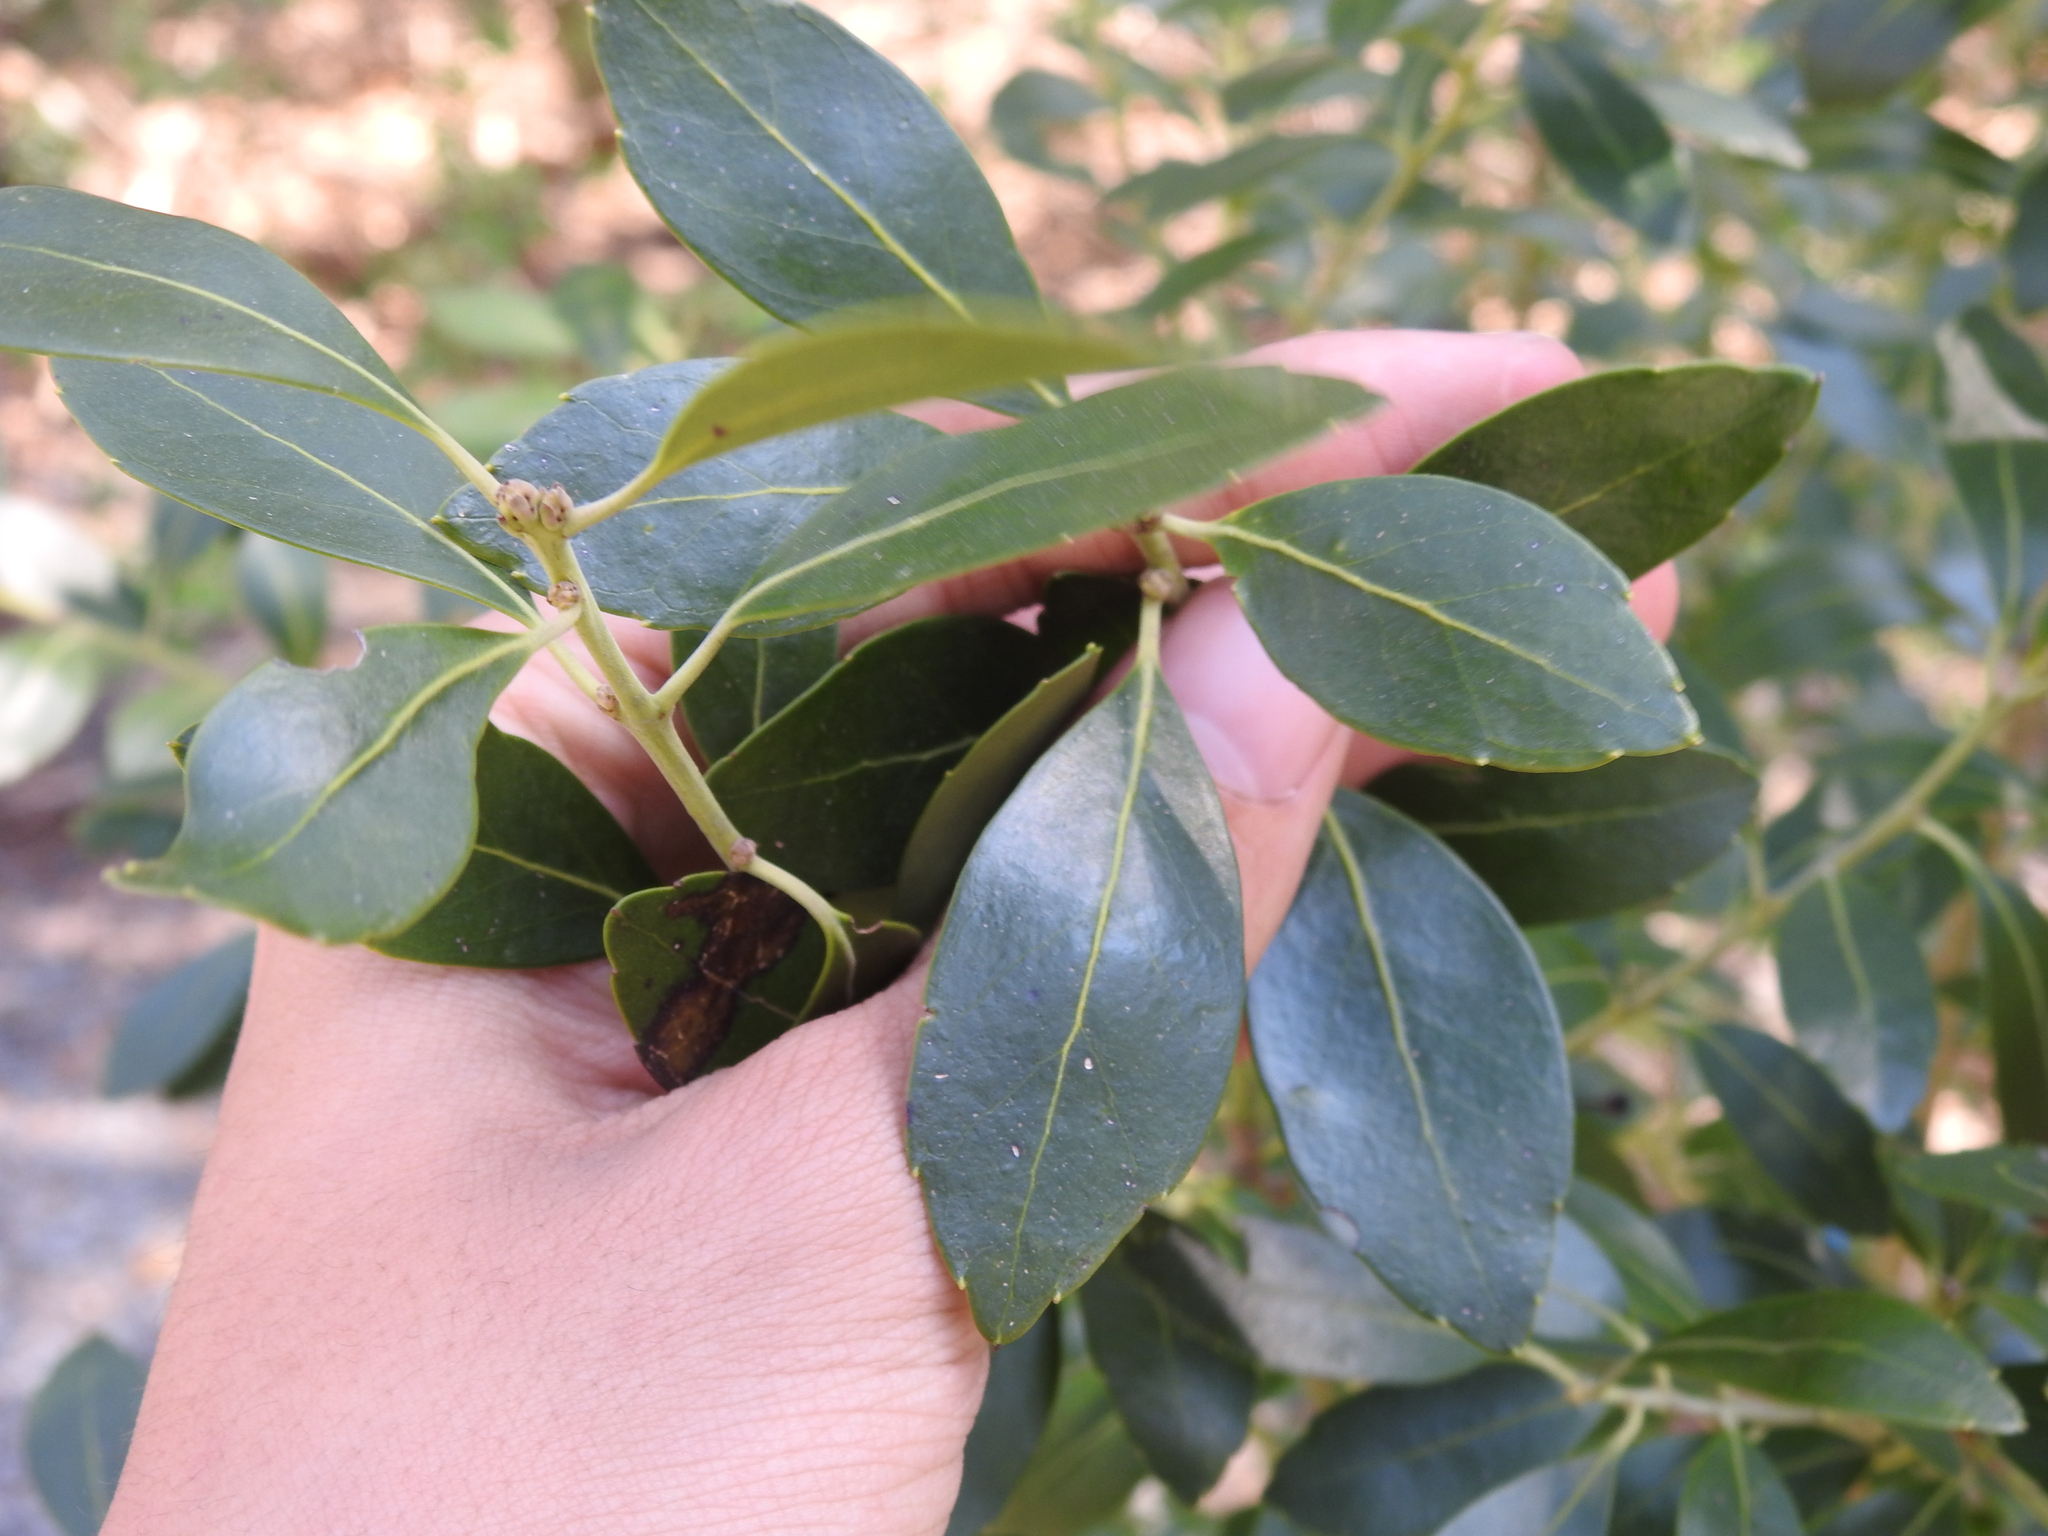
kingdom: Plantae
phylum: Tracheophyta
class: Magnoliopsida
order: Aquifoliales
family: Aquifoliaceae
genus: Ilex
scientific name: Ilex glabra
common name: Bitter gallberry
